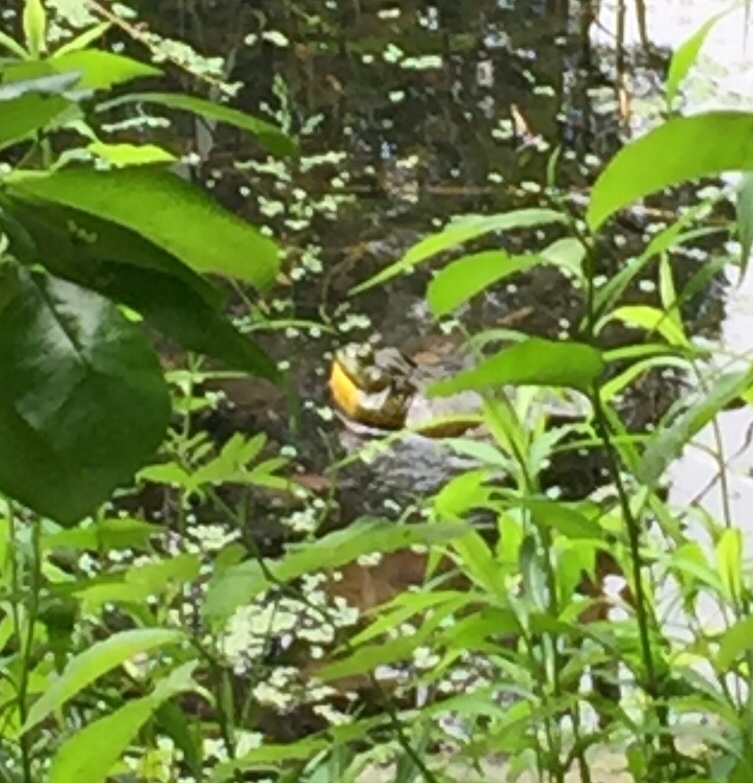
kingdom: Animalia
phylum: Chordata
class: Amphibia
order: Anura
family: Ranidae
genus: Lithobates
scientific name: Lithobates catesbeianus
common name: American bullfrog
